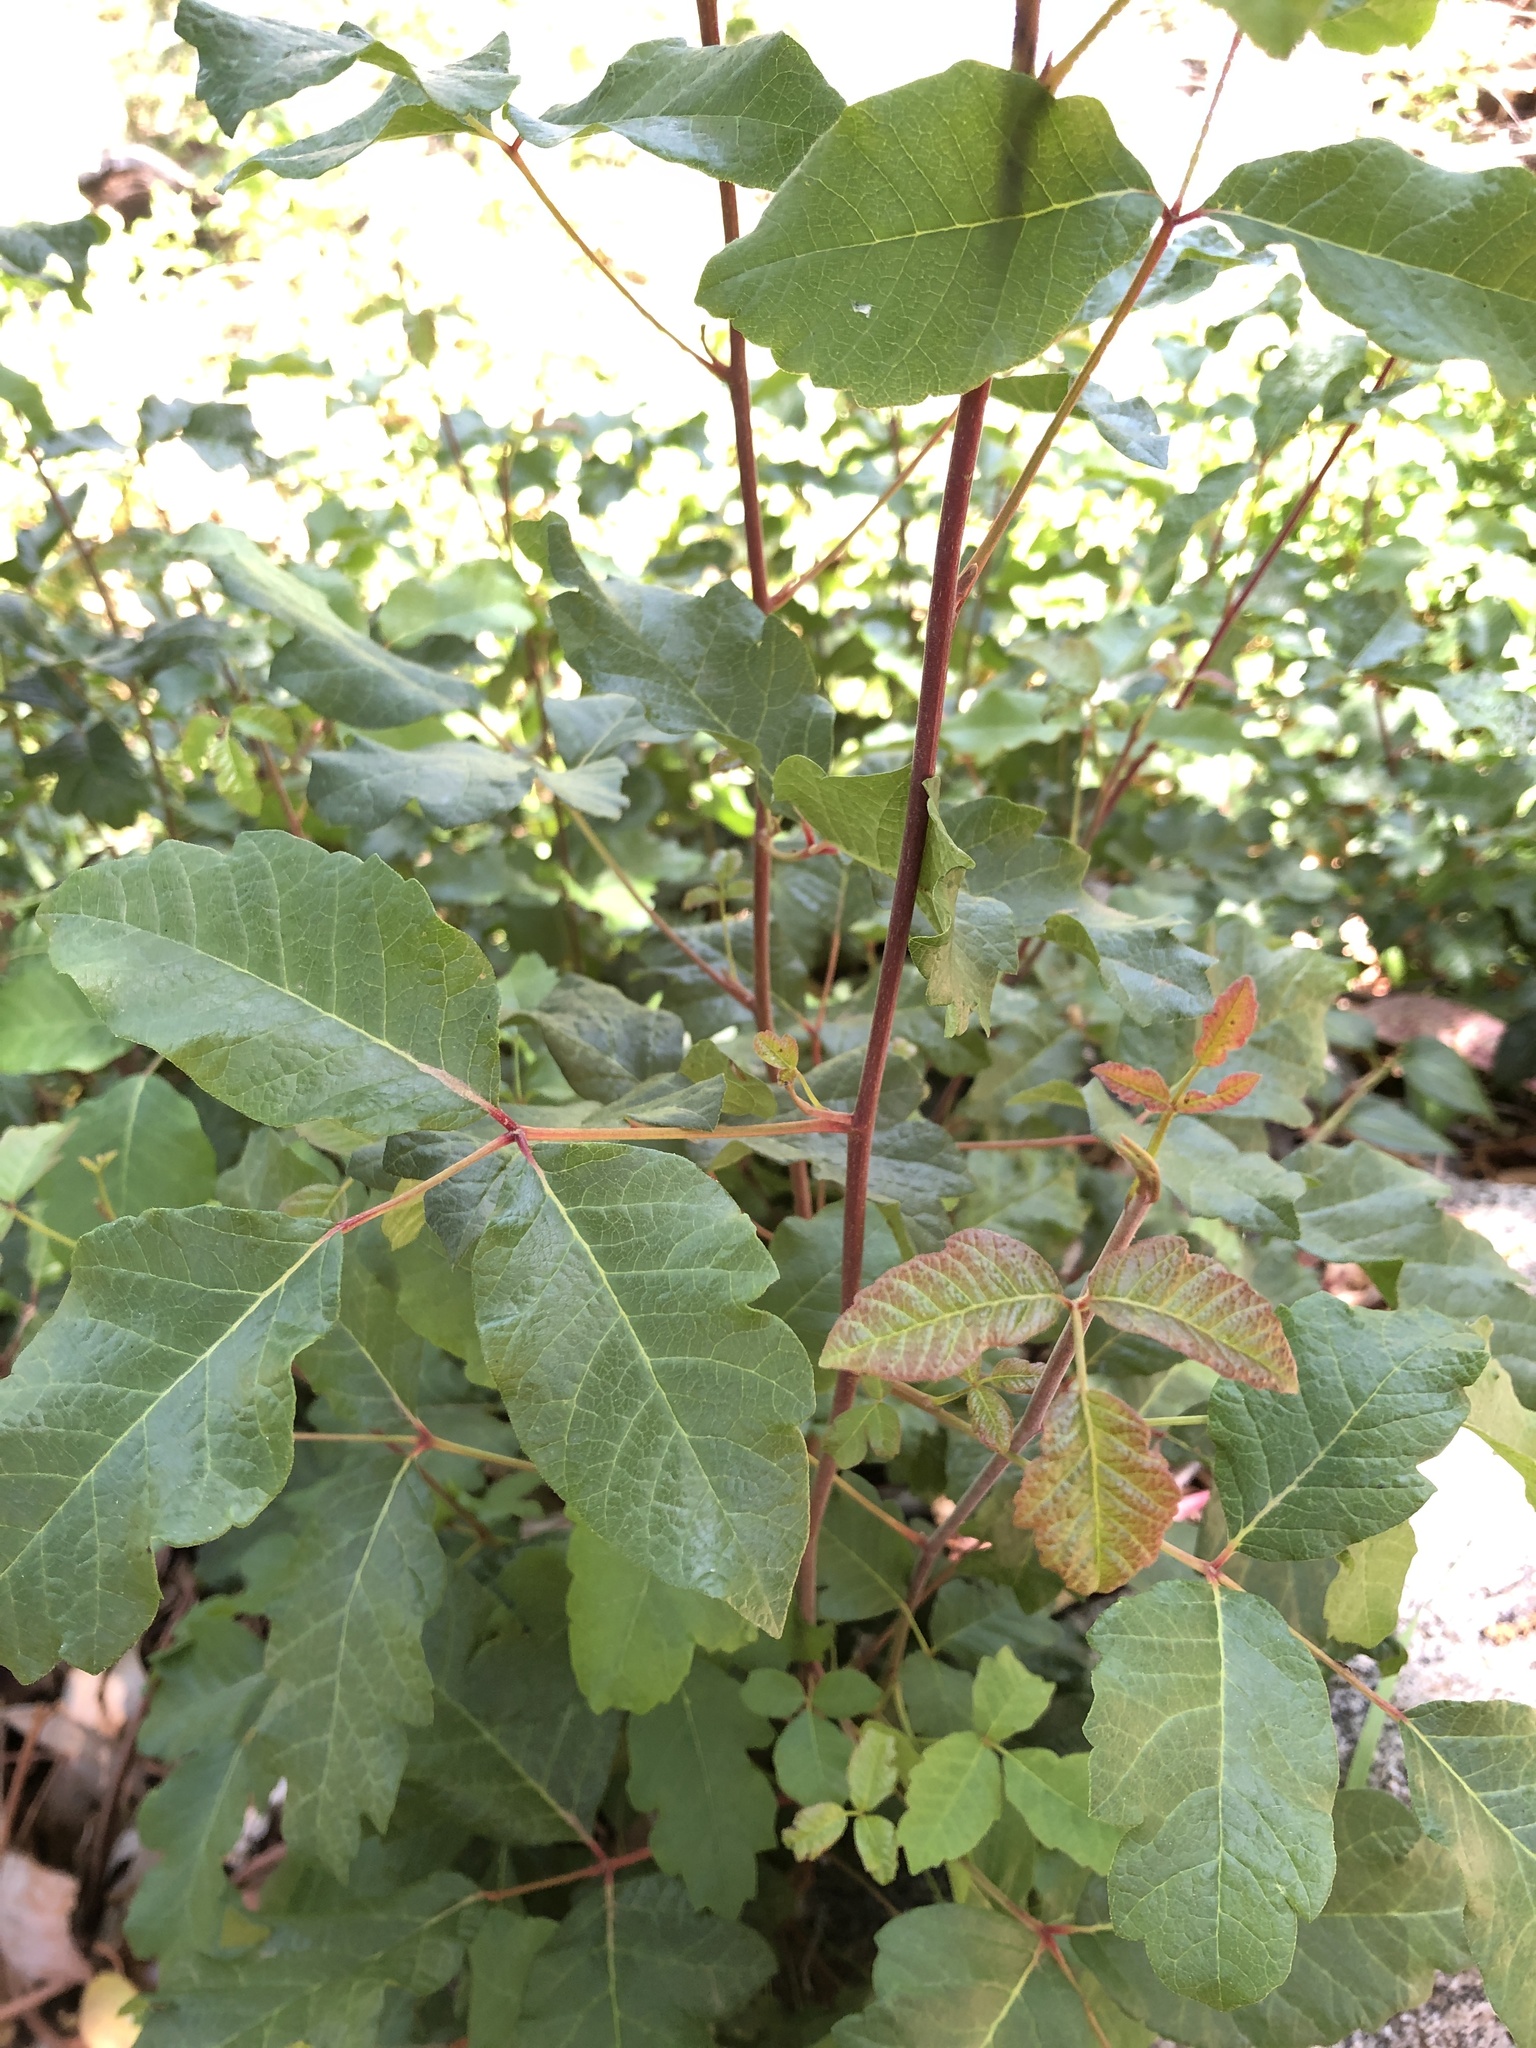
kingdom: Plantae
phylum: Tracheophyta
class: Magnoliopsida
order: Sapindales
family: Anacardiaceae
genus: Toxicodendron
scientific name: Toxicodendron diversilobum
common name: Pacific poison-oak
